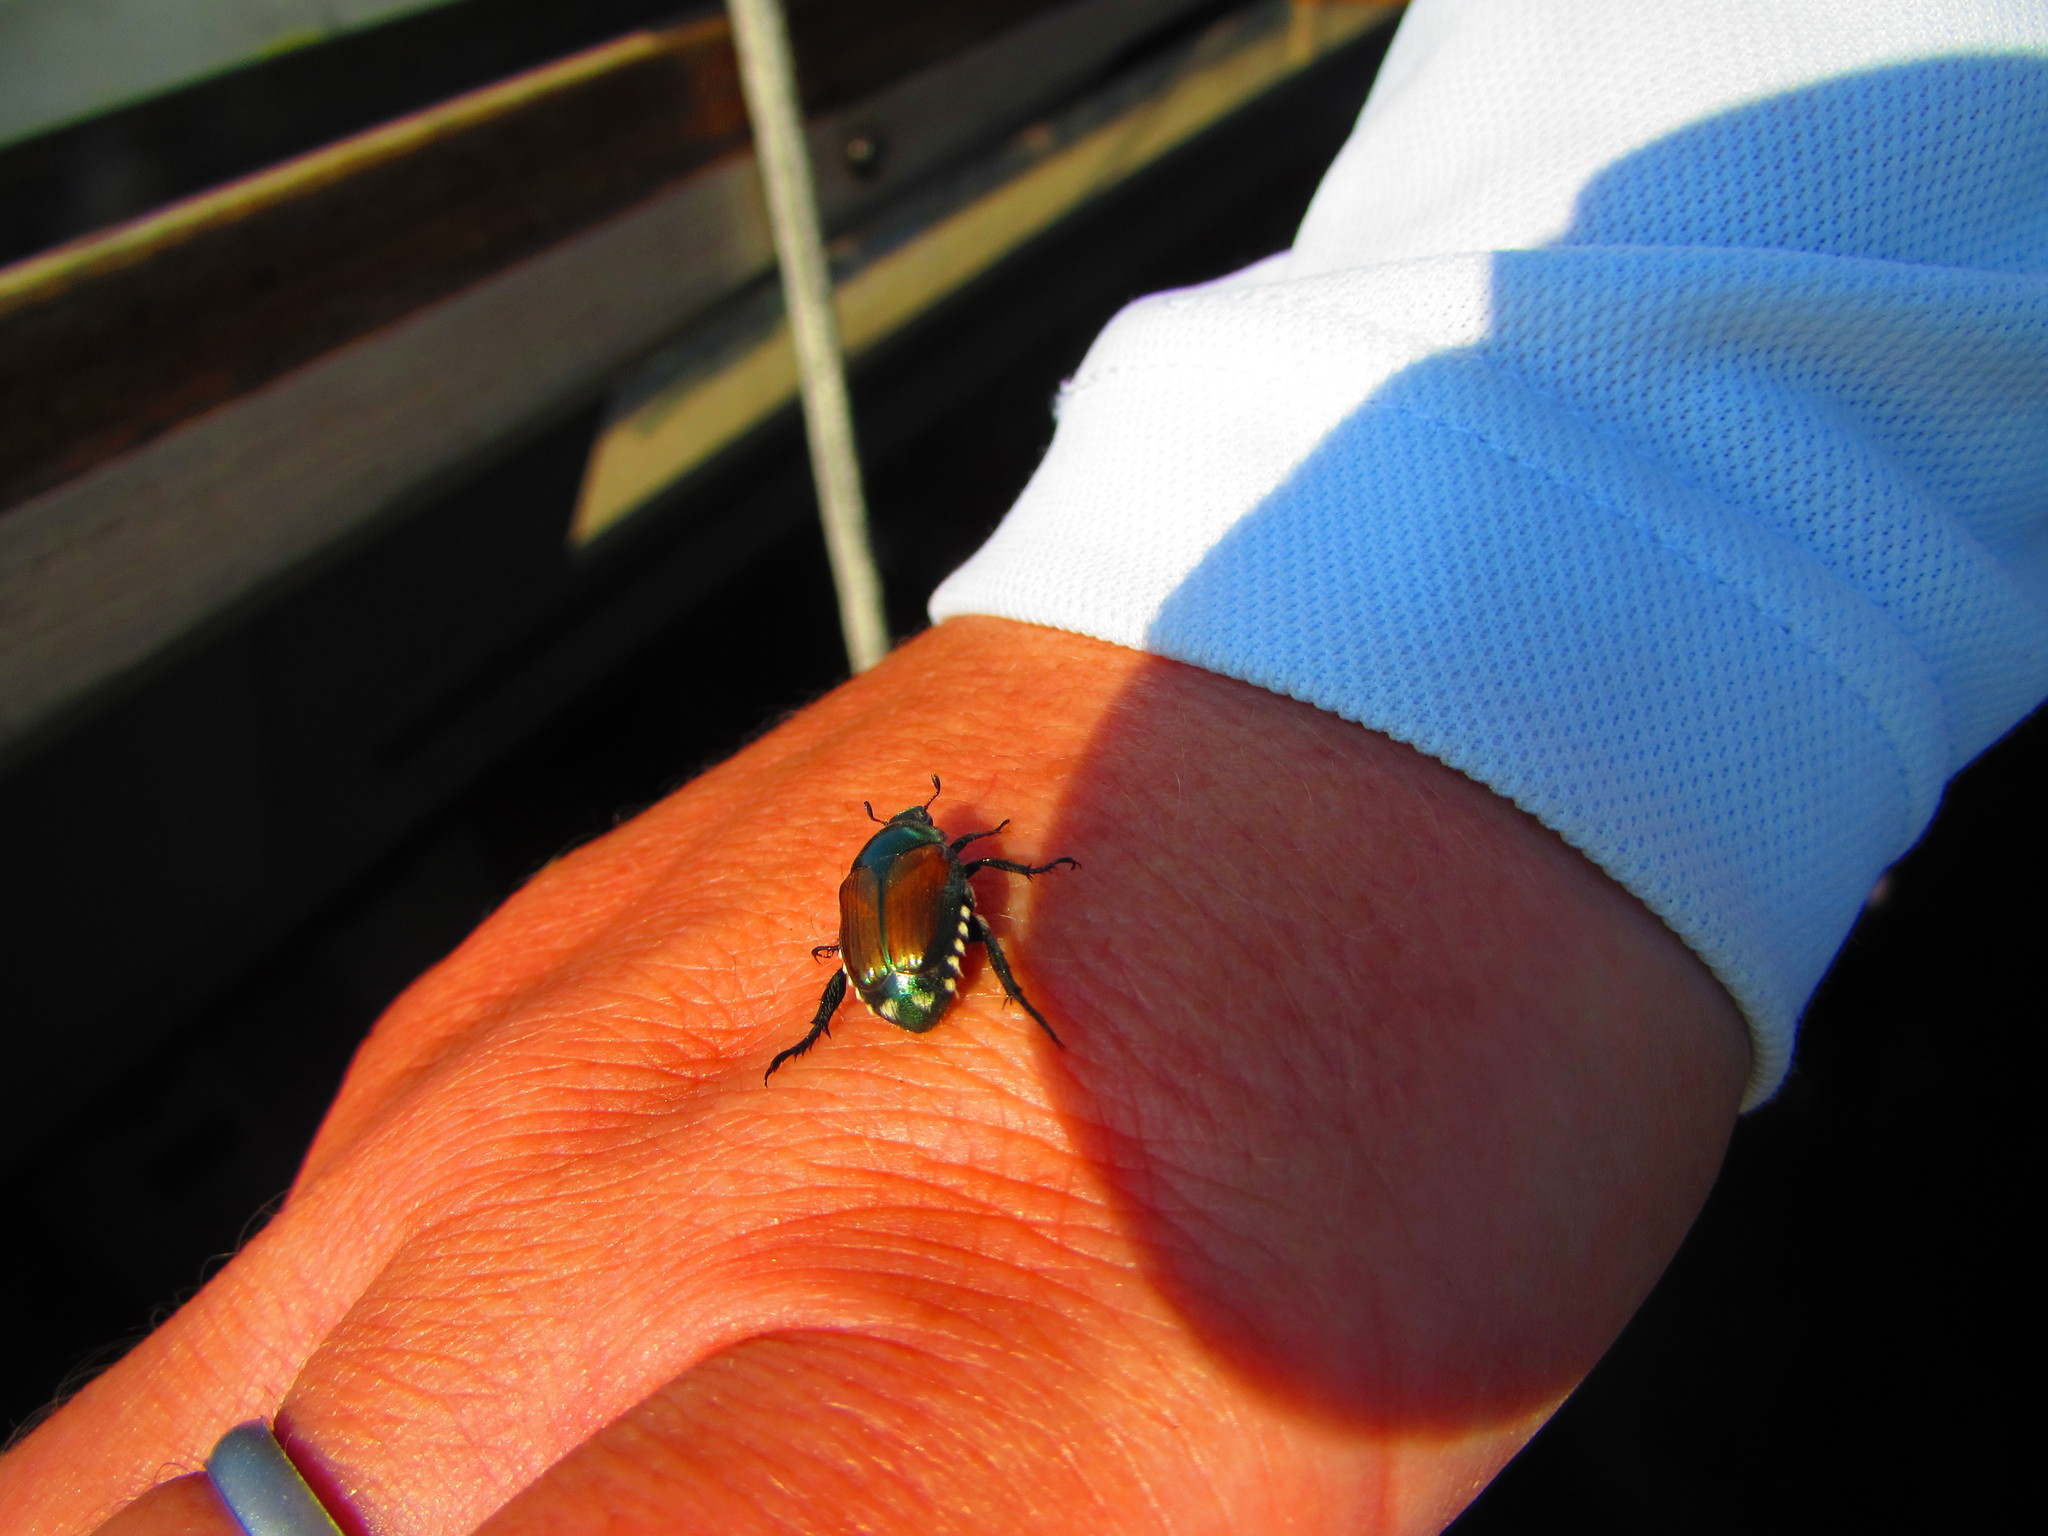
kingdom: Animalia
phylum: Arthropoda
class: Insecta
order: Coleoptera
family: Scarabaeidae
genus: Popillia
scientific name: Popillia japonica
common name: Japanese beetle
